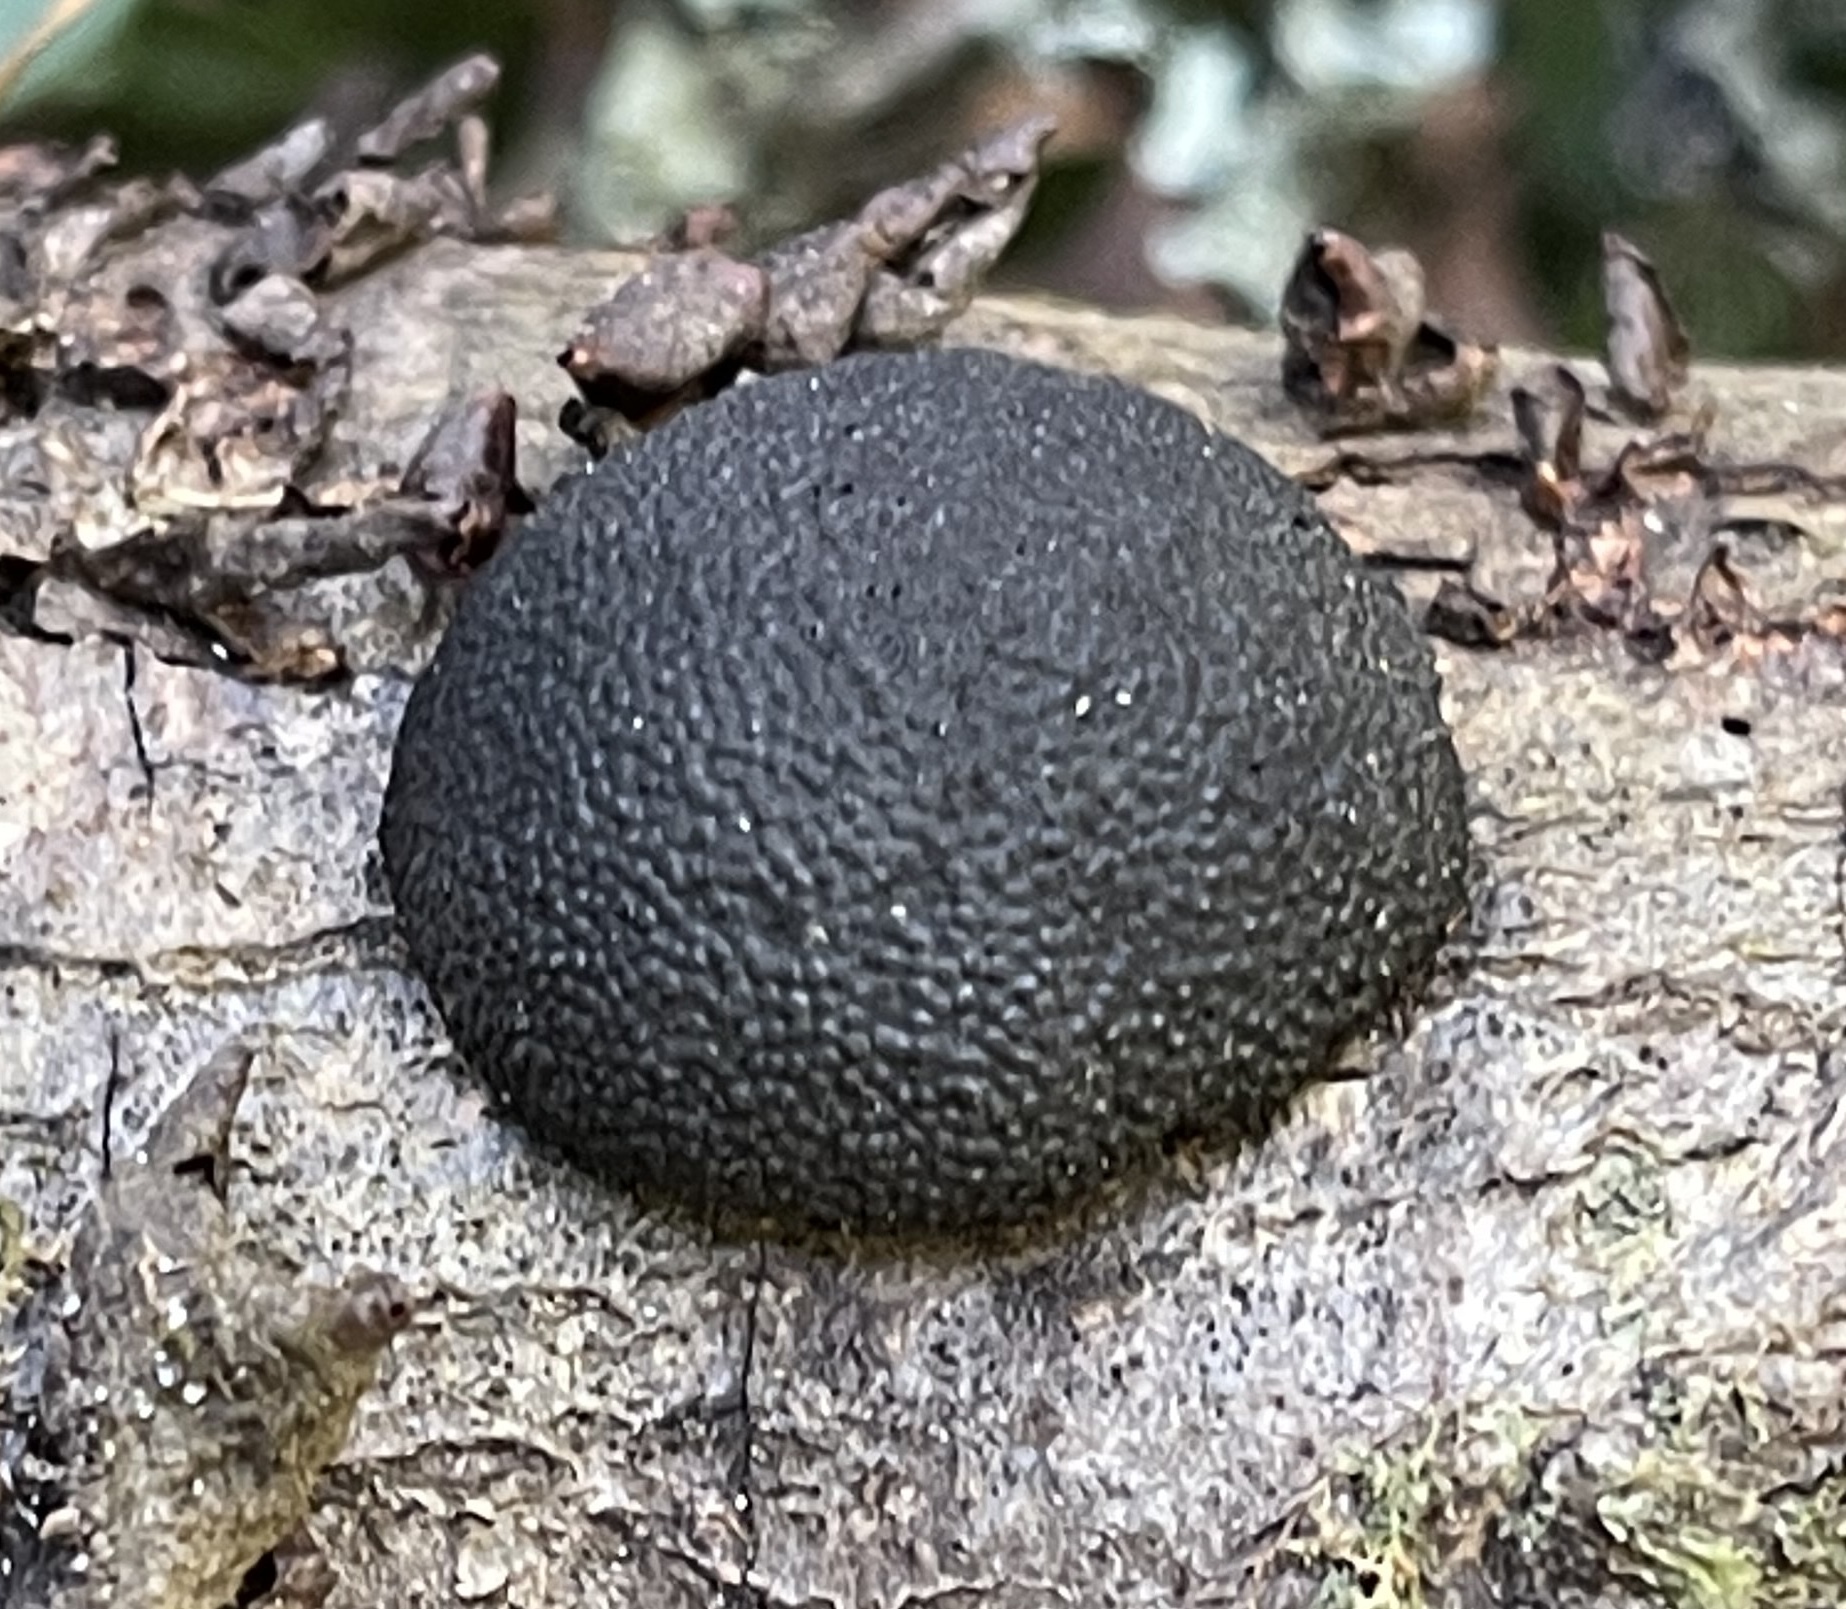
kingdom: Fungi
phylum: Ascomycota
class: Sordariomycetes
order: Xylariales
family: Hypoxylaceae
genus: Annulohypoxylon
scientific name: Annulohypoxylon thouarsianum
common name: Cramp balls
